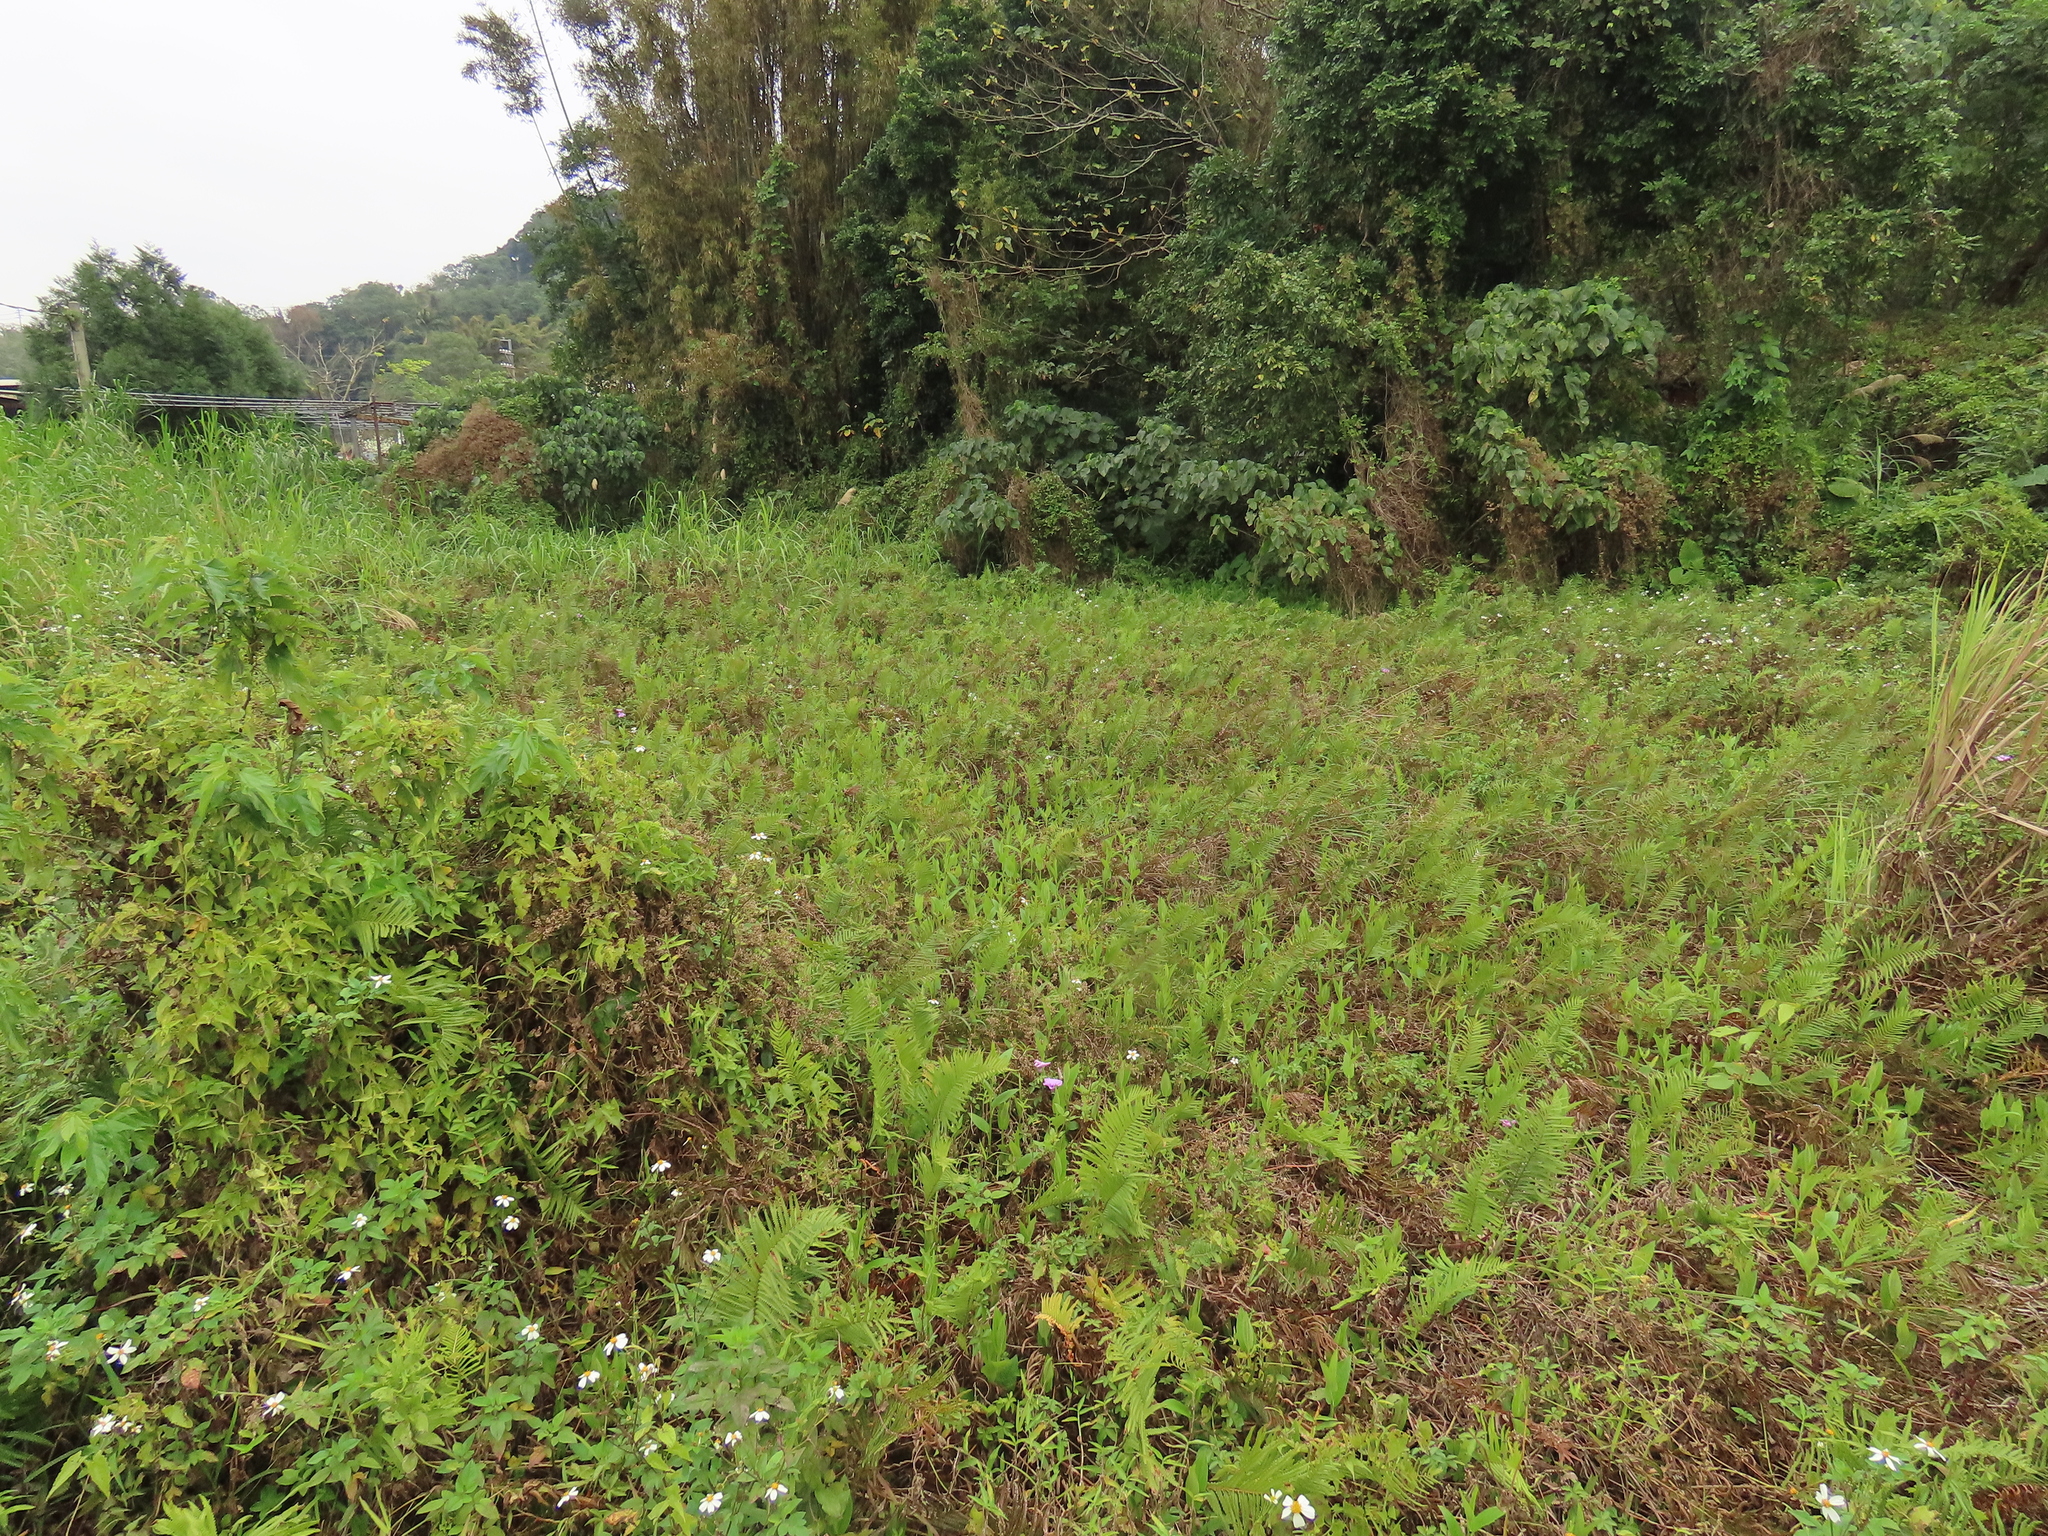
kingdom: Plantae
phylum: Tracheophyta
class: Polypodiopsida
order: Polypodiales
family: Thelypteridaceae
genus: Cyclosorus
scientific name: Cyclosorus interruptus
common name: Neke fern
